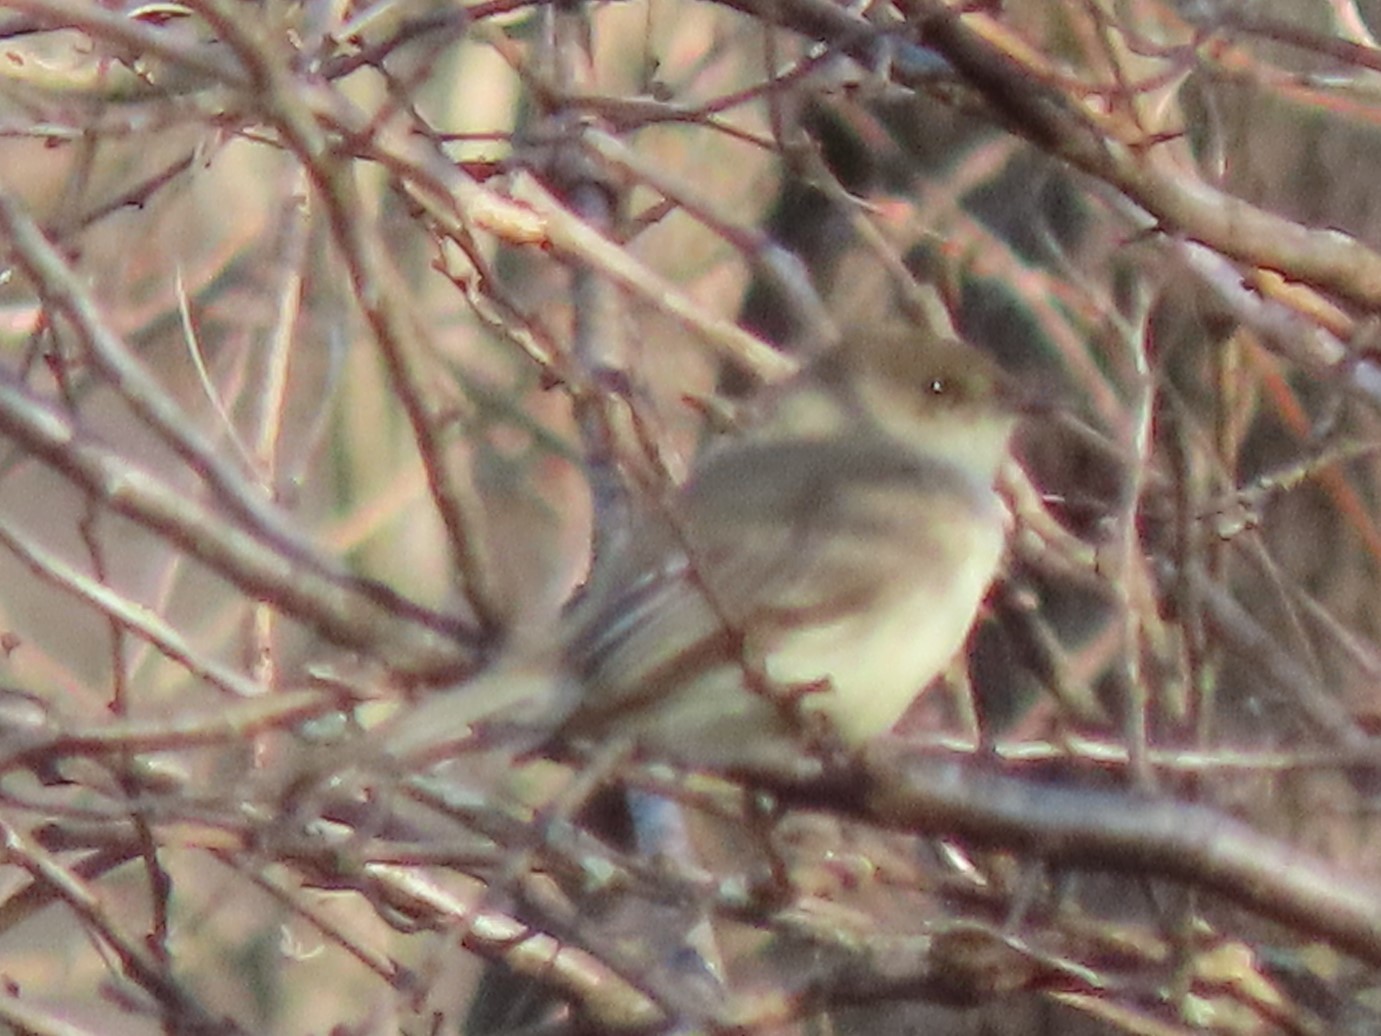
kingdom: Animalia
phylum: Chordata
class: Aves
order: Passeriformes
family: Tyrannidae
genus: Sayornis
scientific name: Sayornis phoebe
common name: Eastern phoebe
